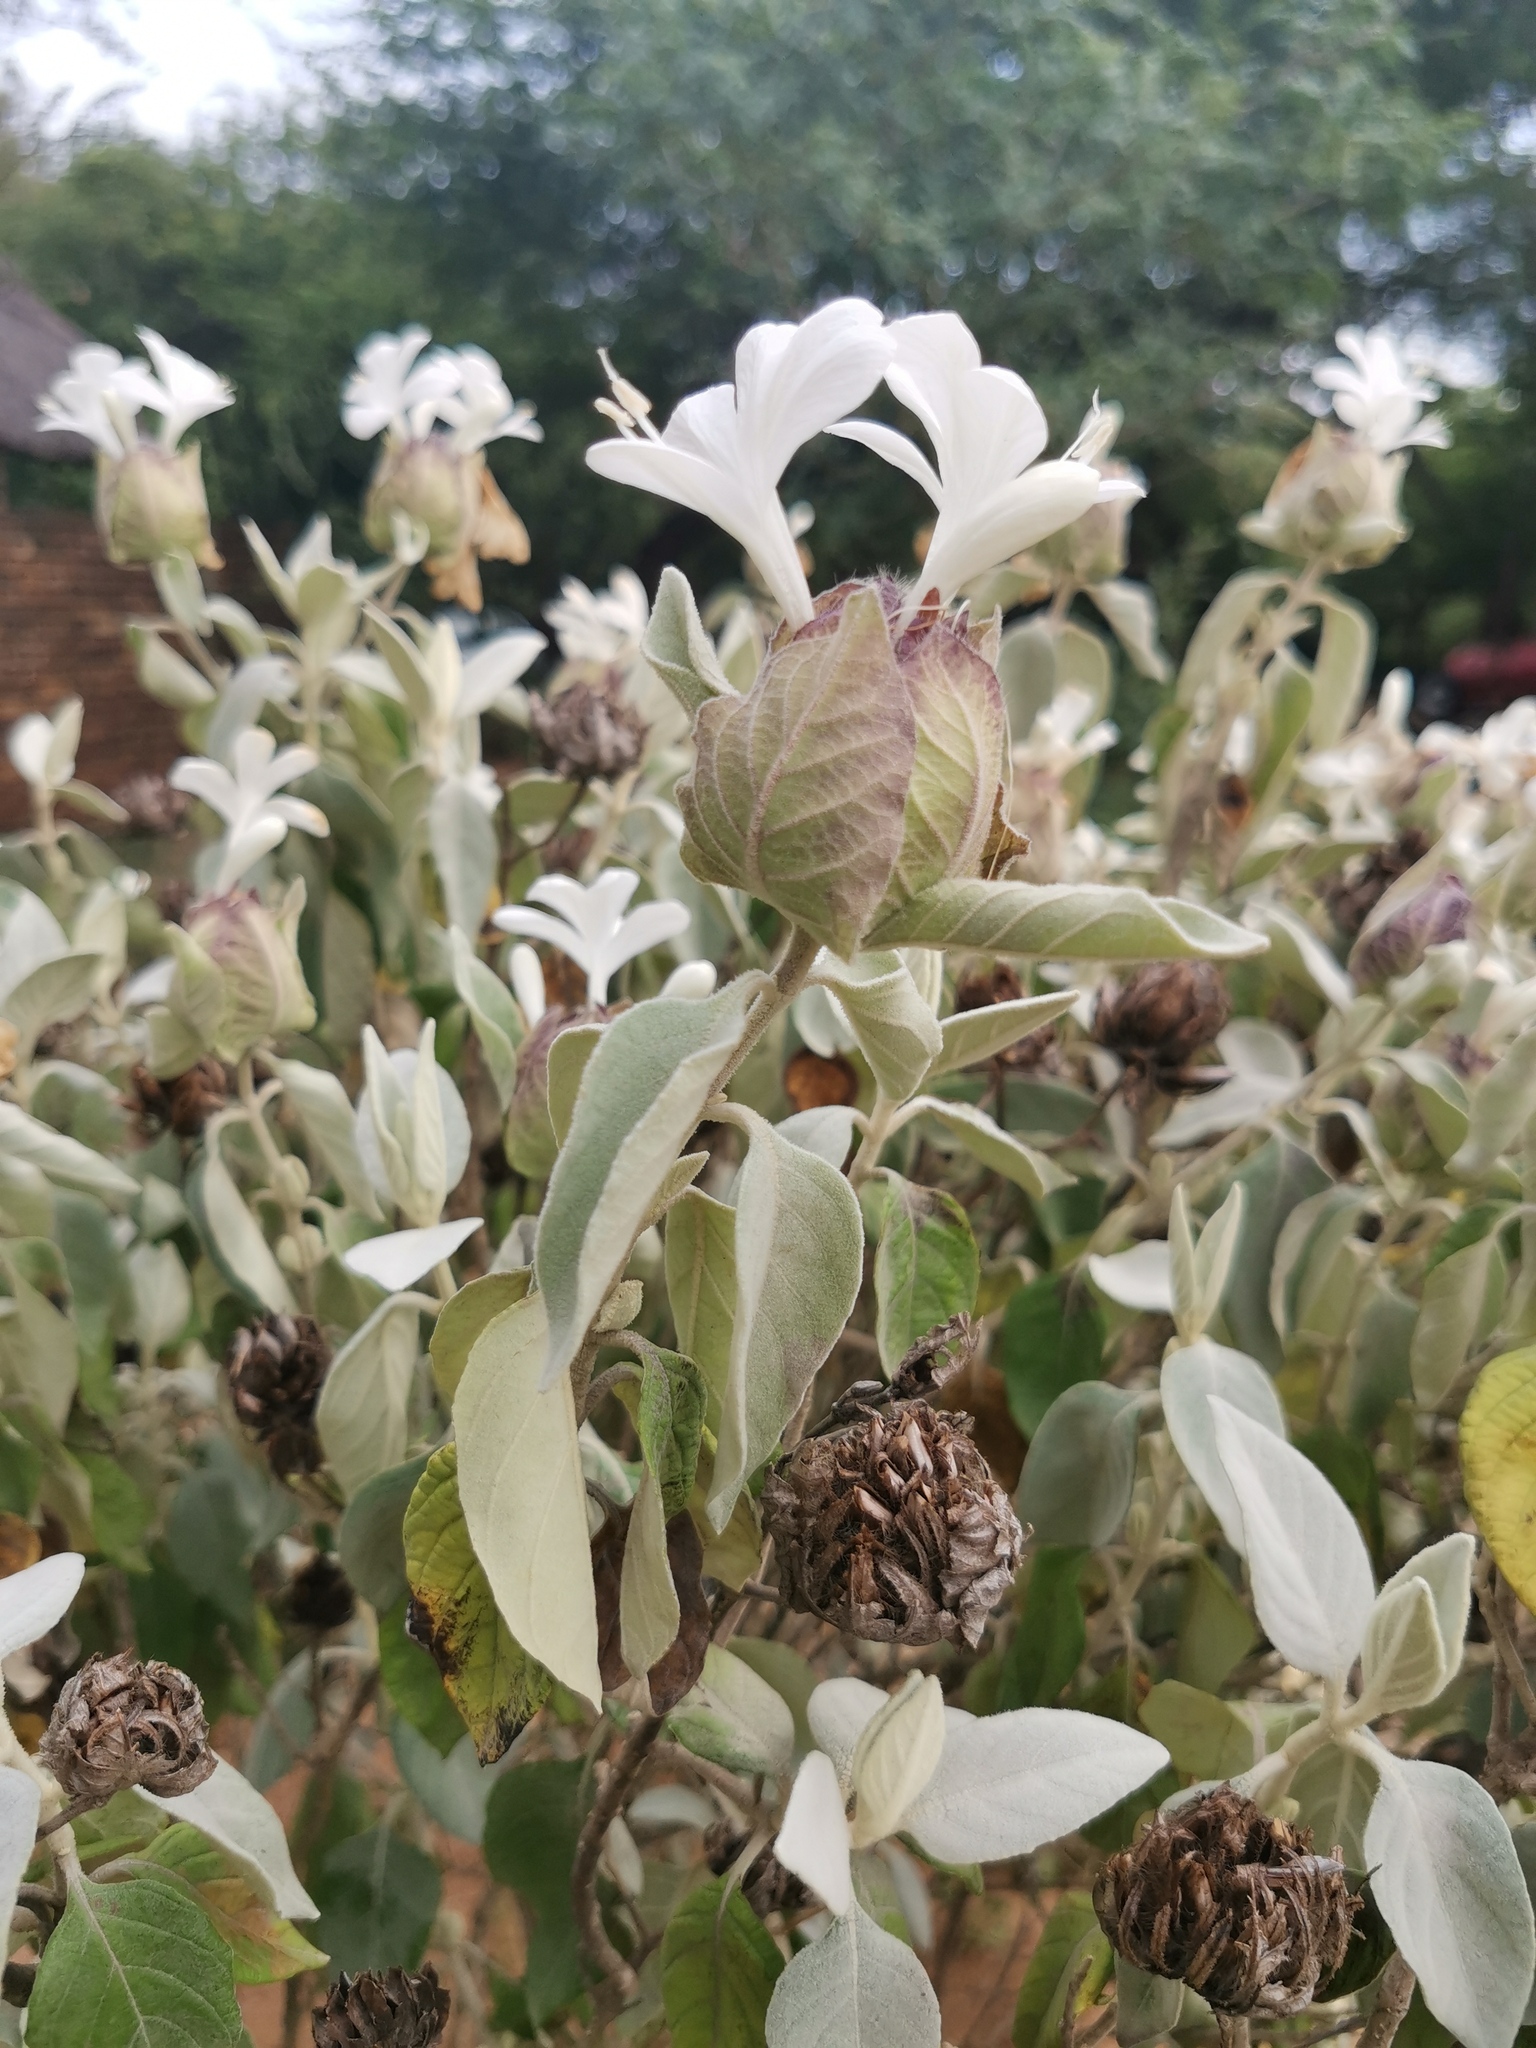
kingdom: Plantae
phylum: Tracheophyta
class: Magnoliopsida
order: Lamiales
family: Acanthaceae
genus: Barleria
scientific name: Barleria albostellata
